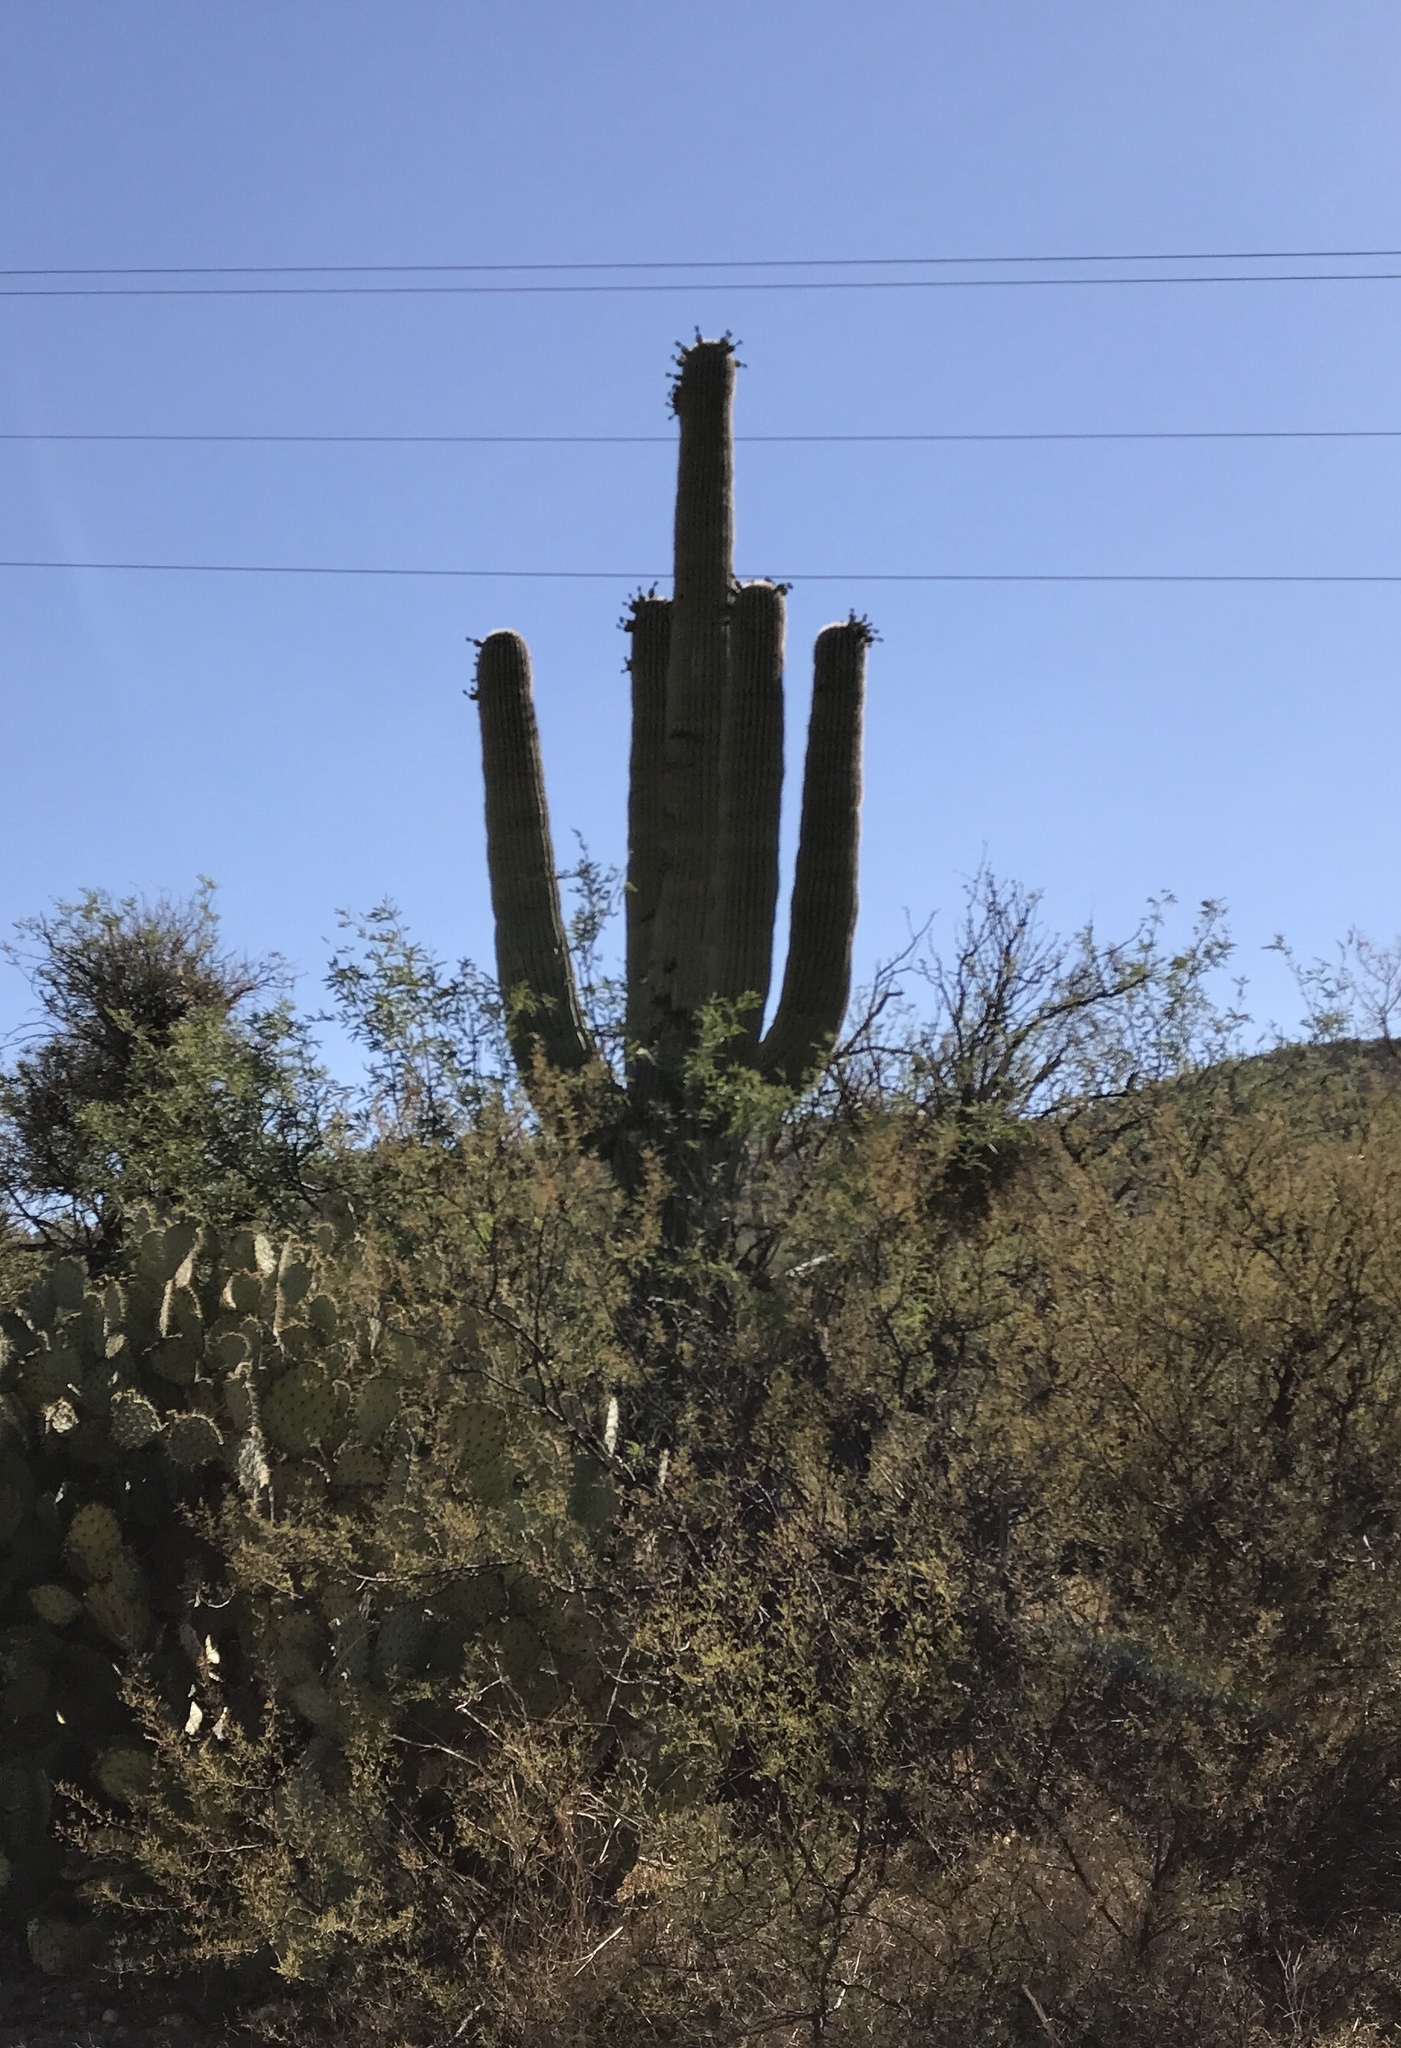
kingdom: Plantae
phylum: Tracheophyta
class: Magnoliopsida
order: Caryophyllales
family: Cactaceae
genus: Carnegiea
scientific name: Carnegiea gigantea
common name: Saguaro
